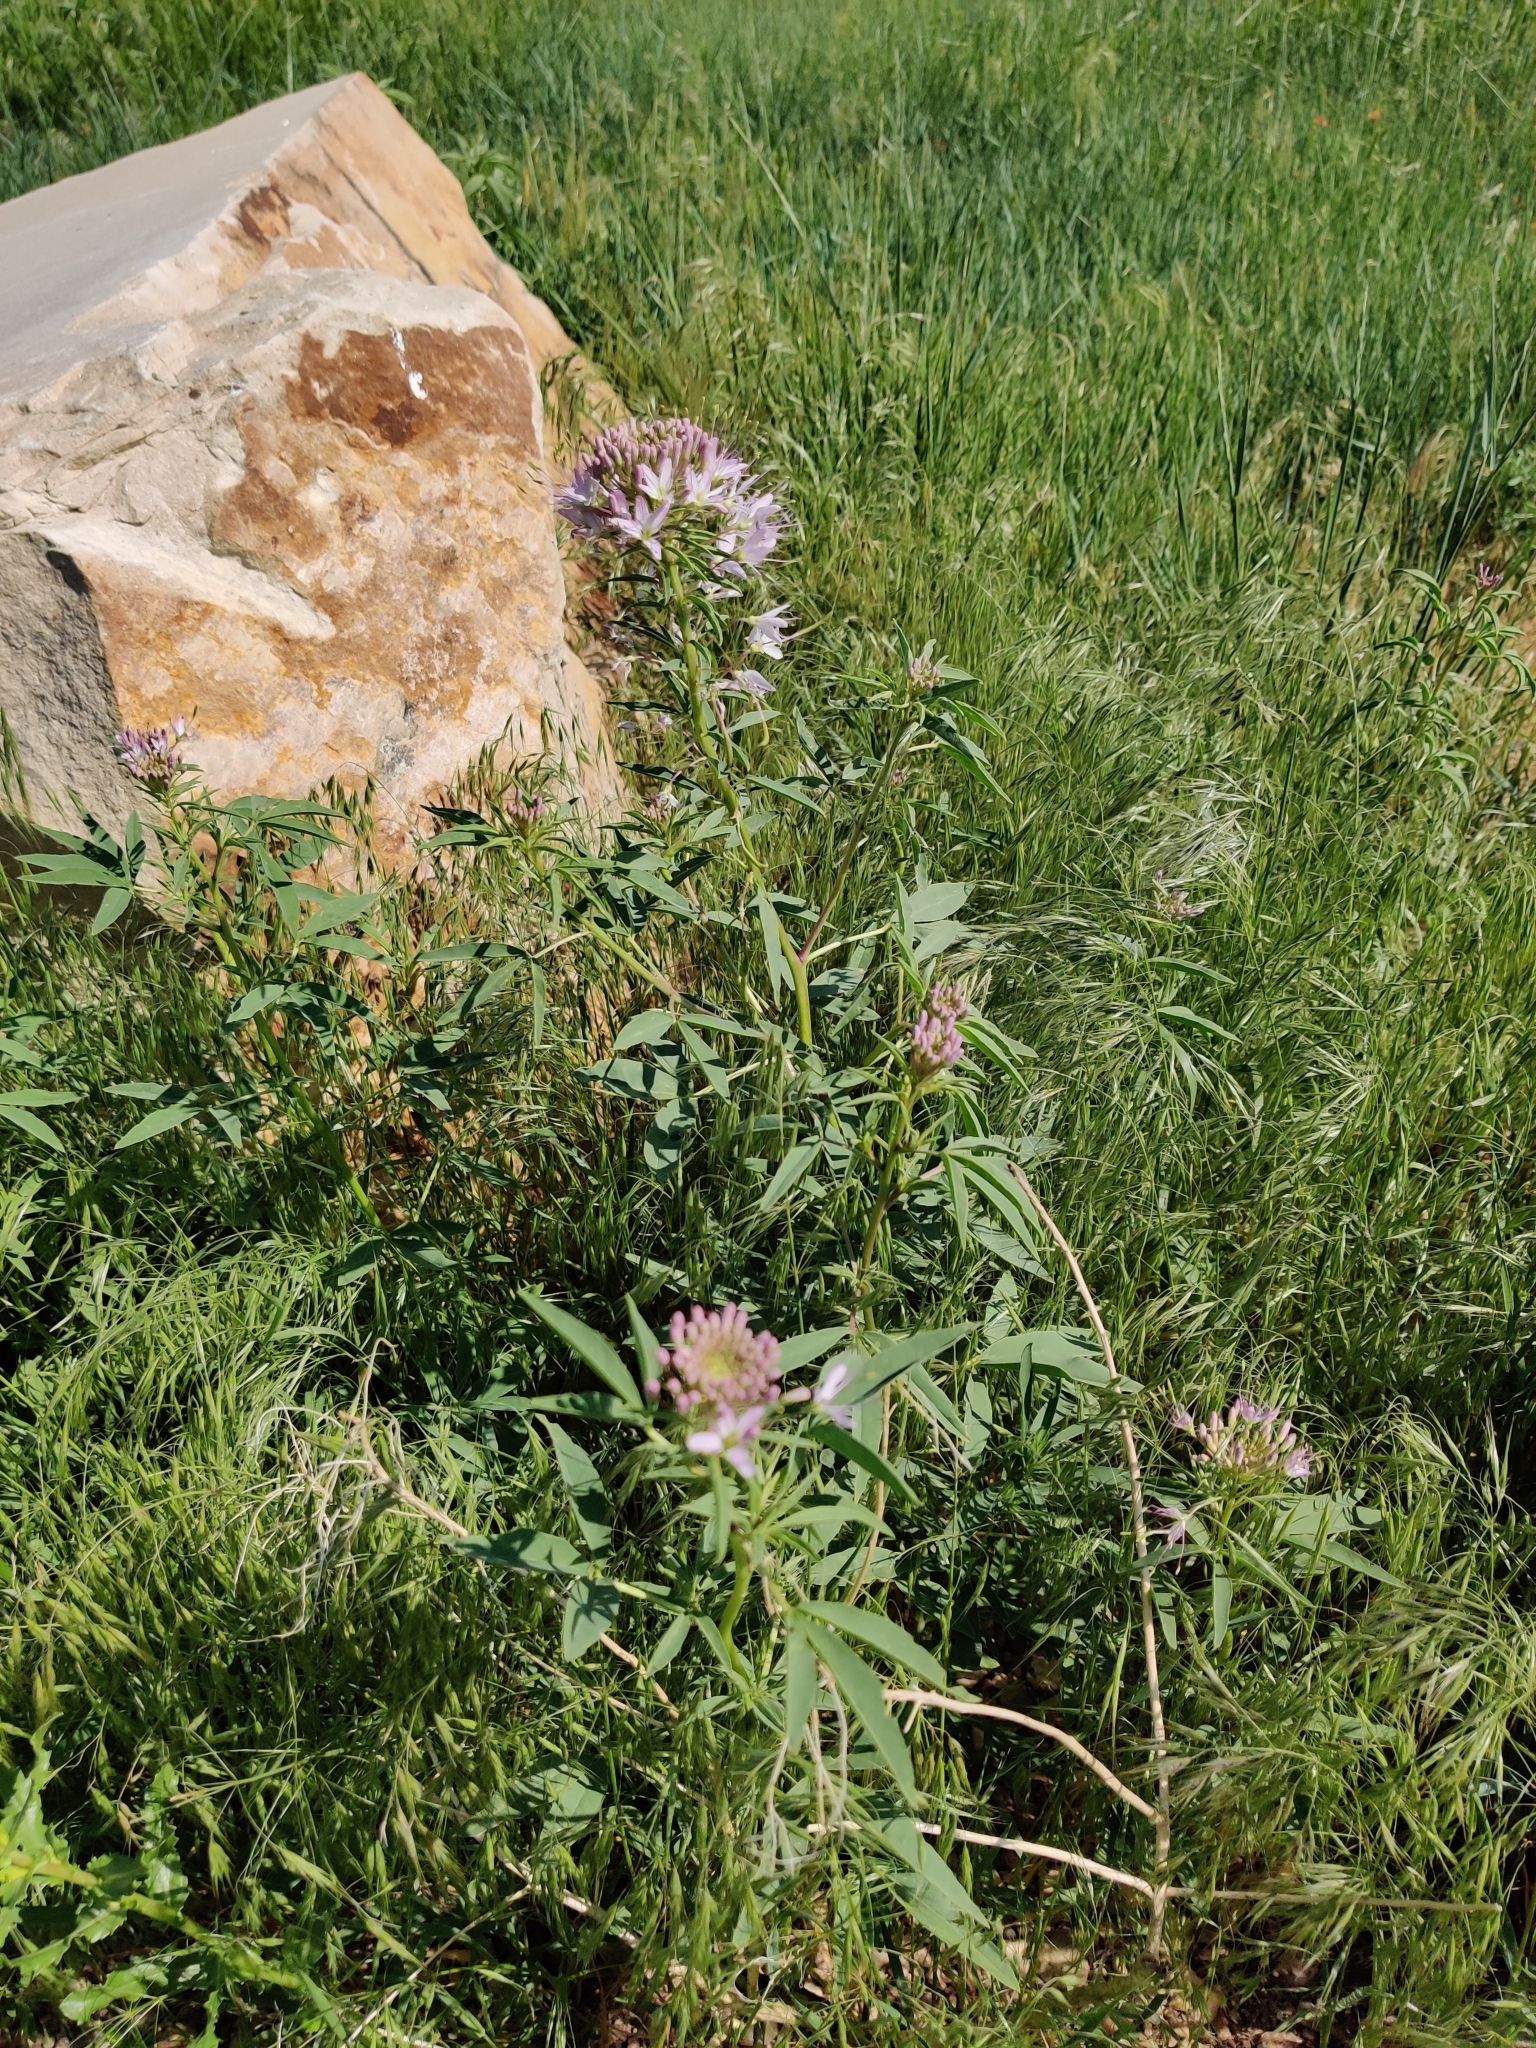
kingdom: Plantae
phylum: Tracheophyta
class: Magnoliopsida
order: Brassicales
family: Cleomaceae
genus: Cleomella
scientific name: Cleomella serrulata
